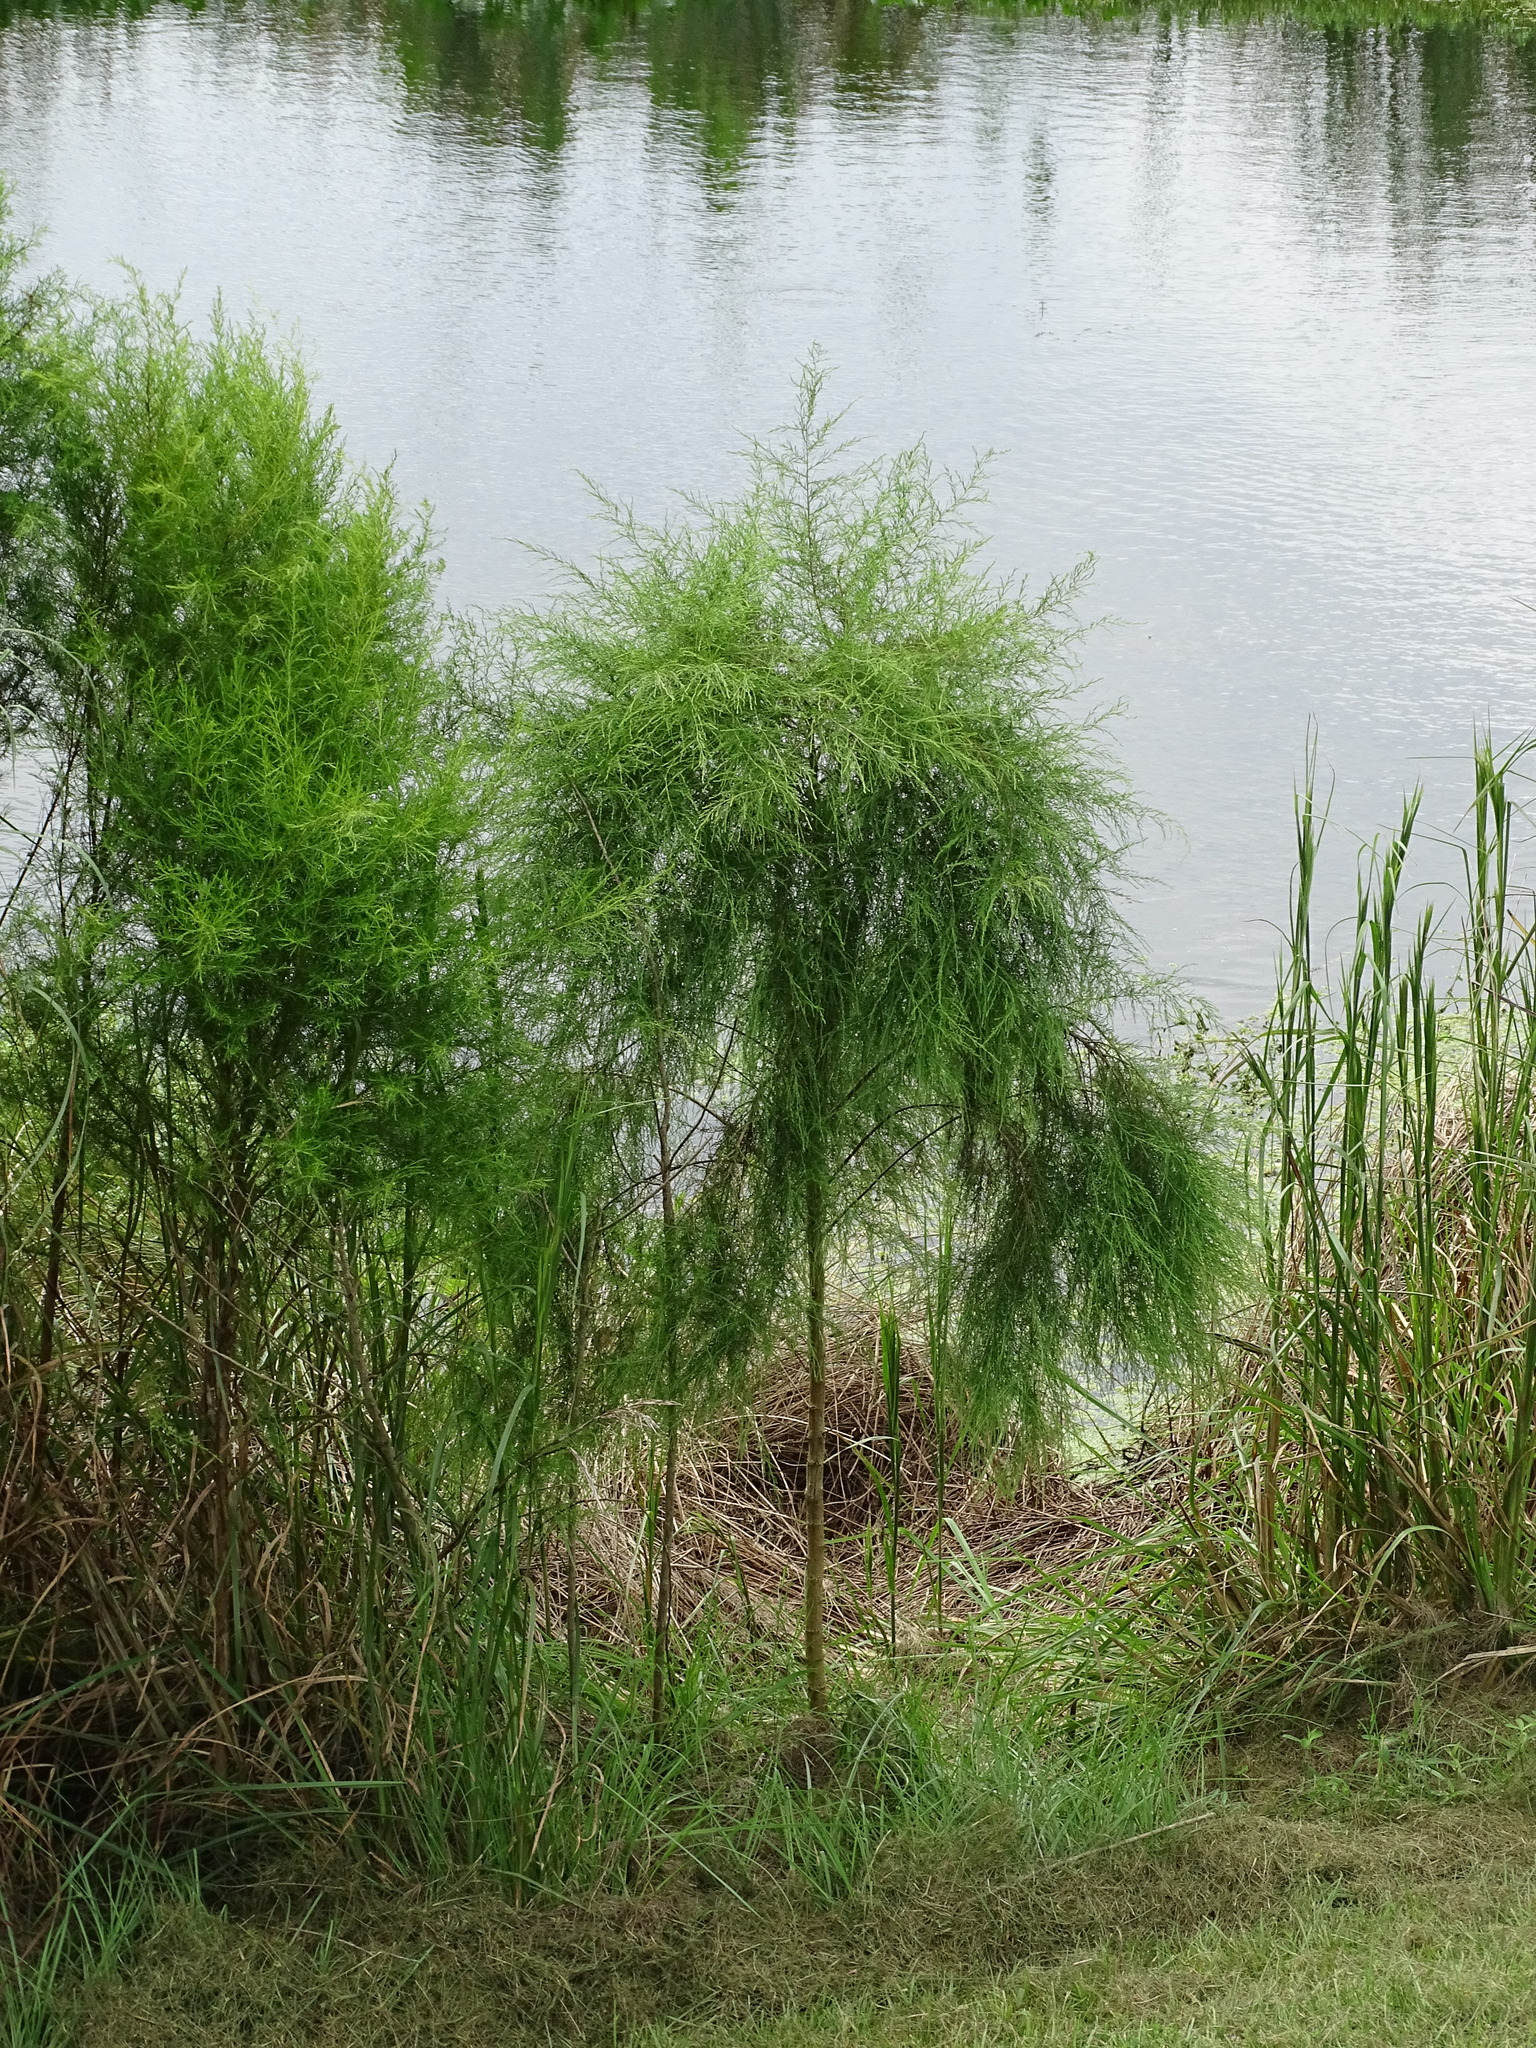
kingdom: Plantae
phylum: Tracheophyta
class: Magnoliopsida
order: Asterales
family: Asteraceae
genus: Eupatorium
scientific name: Eupatorium capillifolium
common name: Dog-fennel
